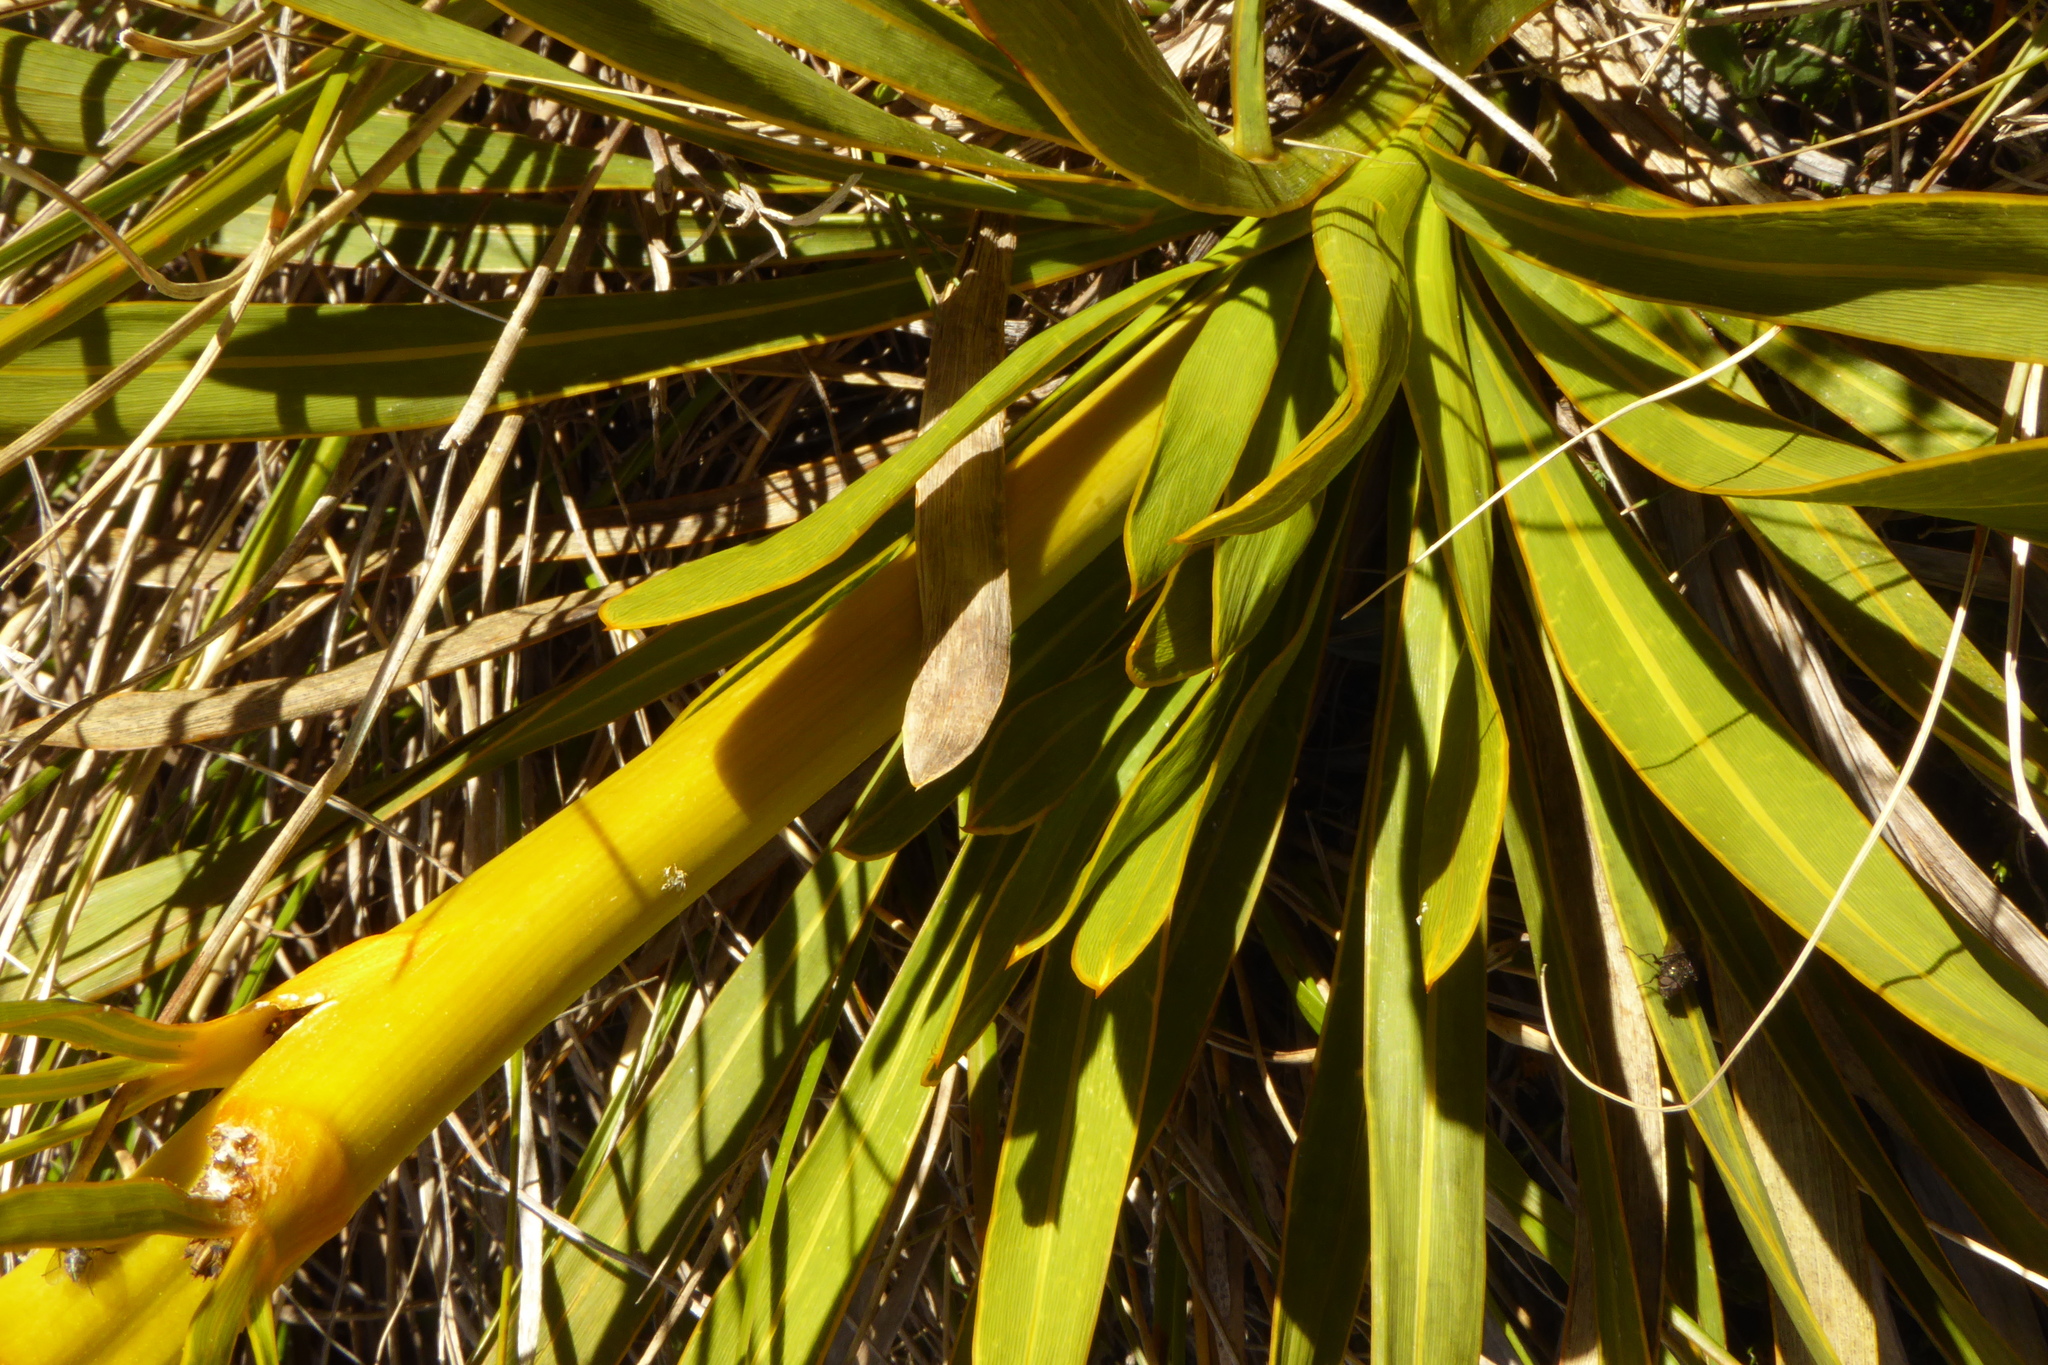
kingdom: Plantae
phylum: Tracheophyta
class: Magnoliopsida
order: Apiales
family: Apiaceae
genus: Aciphylla
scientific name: Aciphylla kirkii
